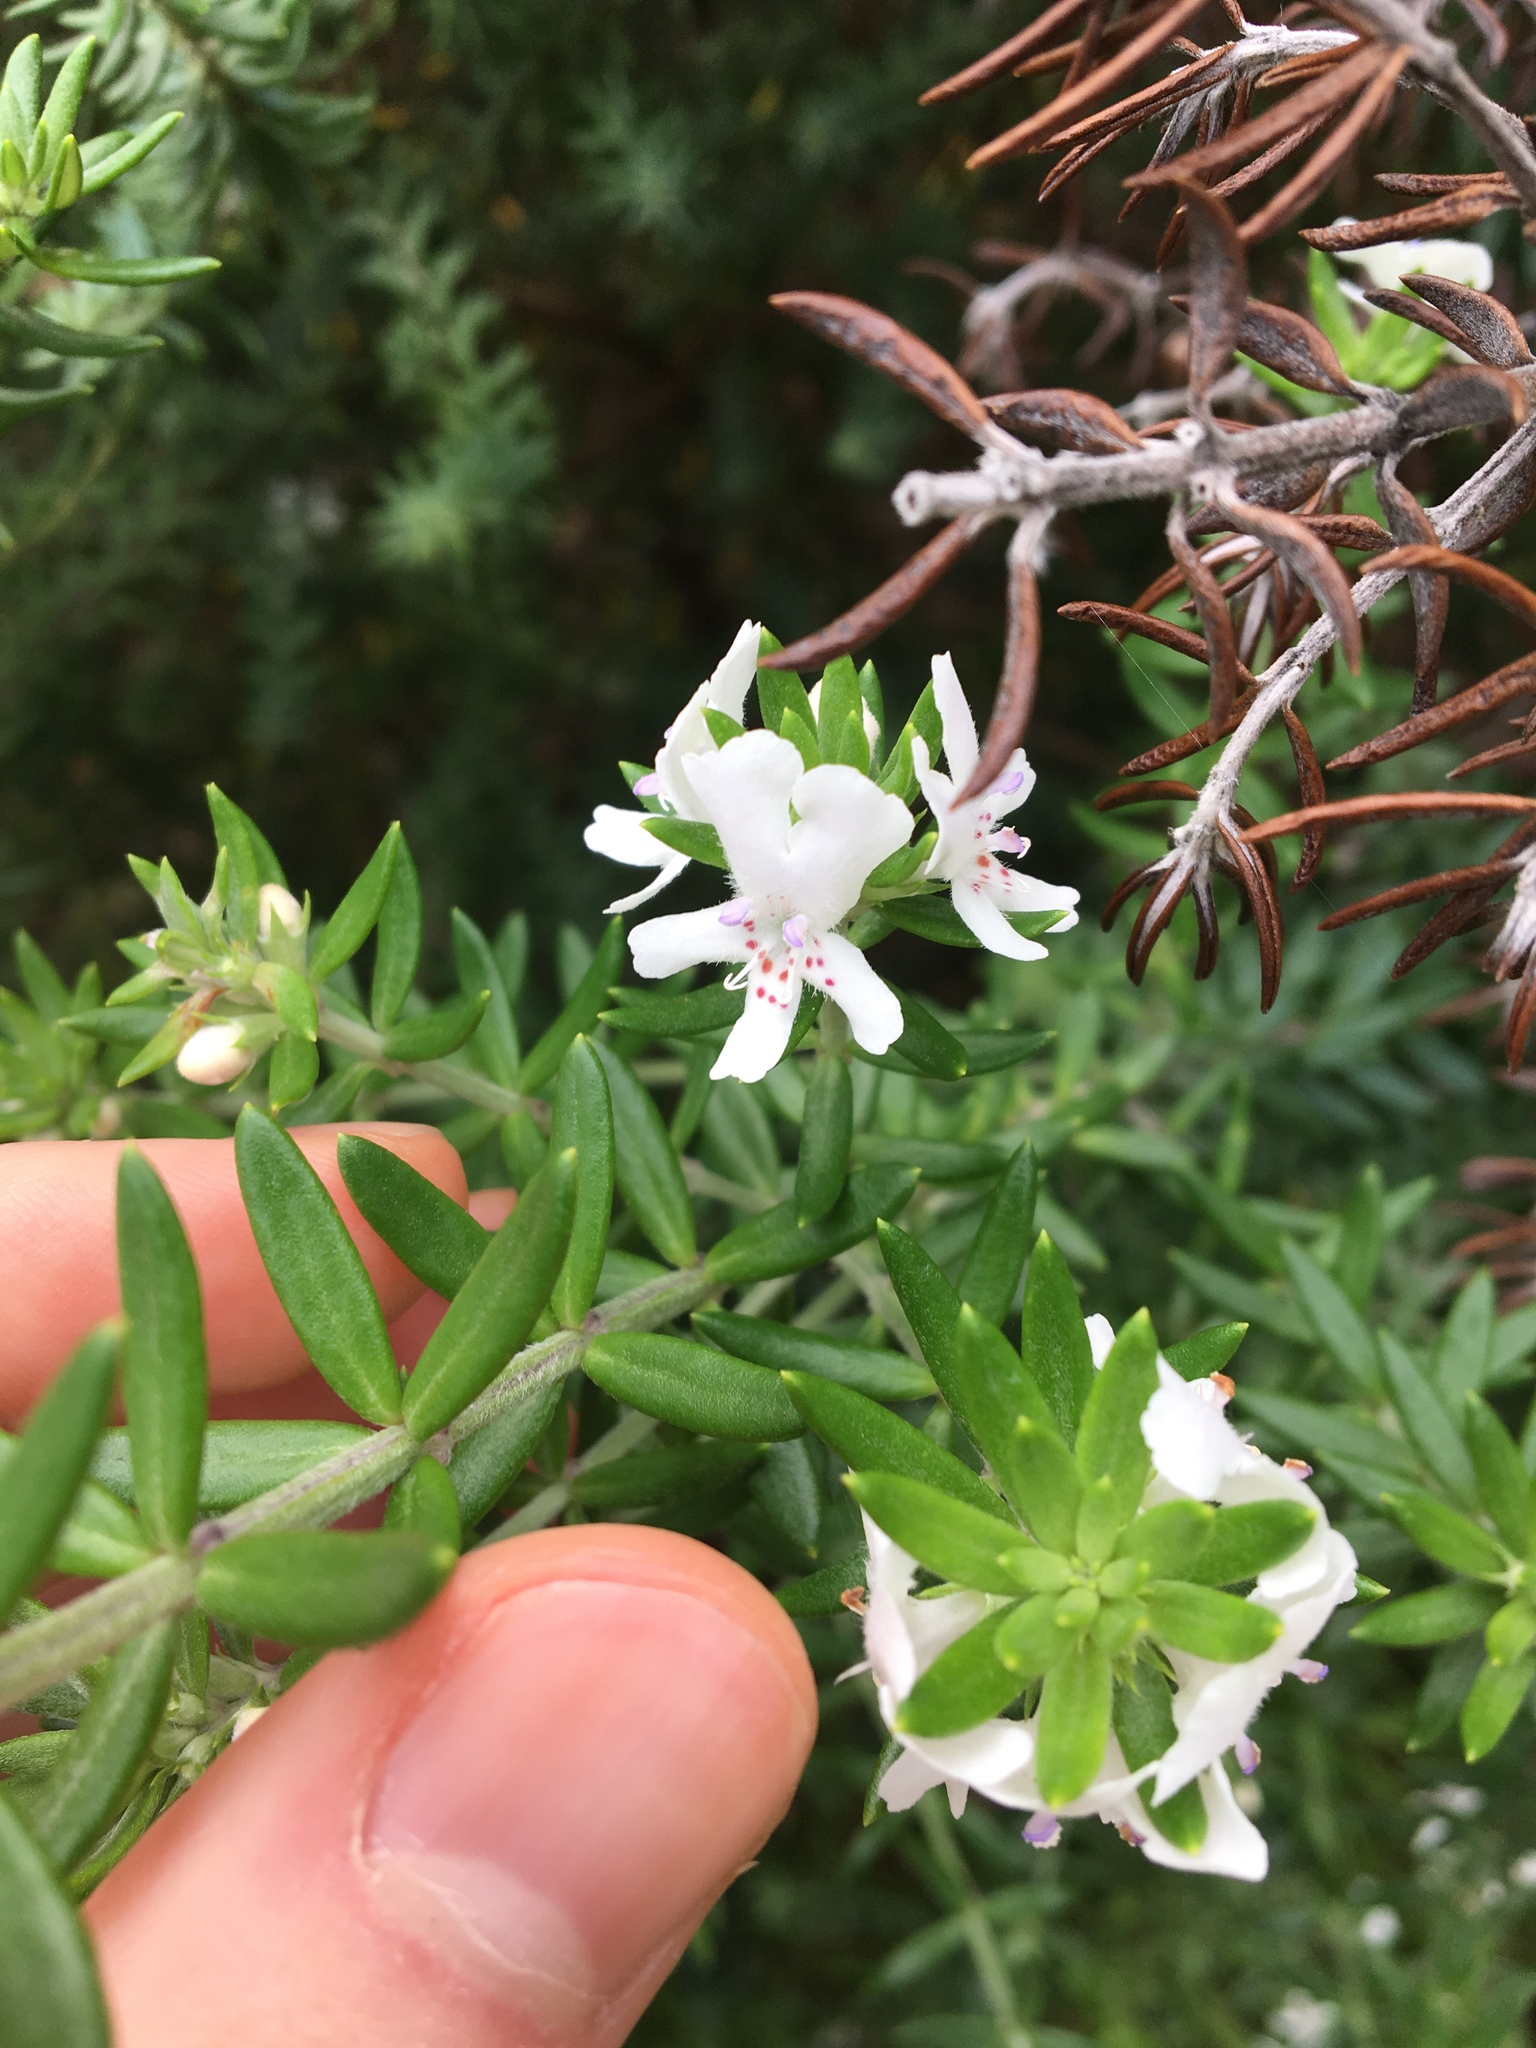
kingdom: Plantae
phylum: Tracheophyta
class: Magnoliopsida
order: Lamiales
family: Lamiaceae
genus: Westringia
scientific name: Westringia fruticosa
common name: Coastal-rosemary
